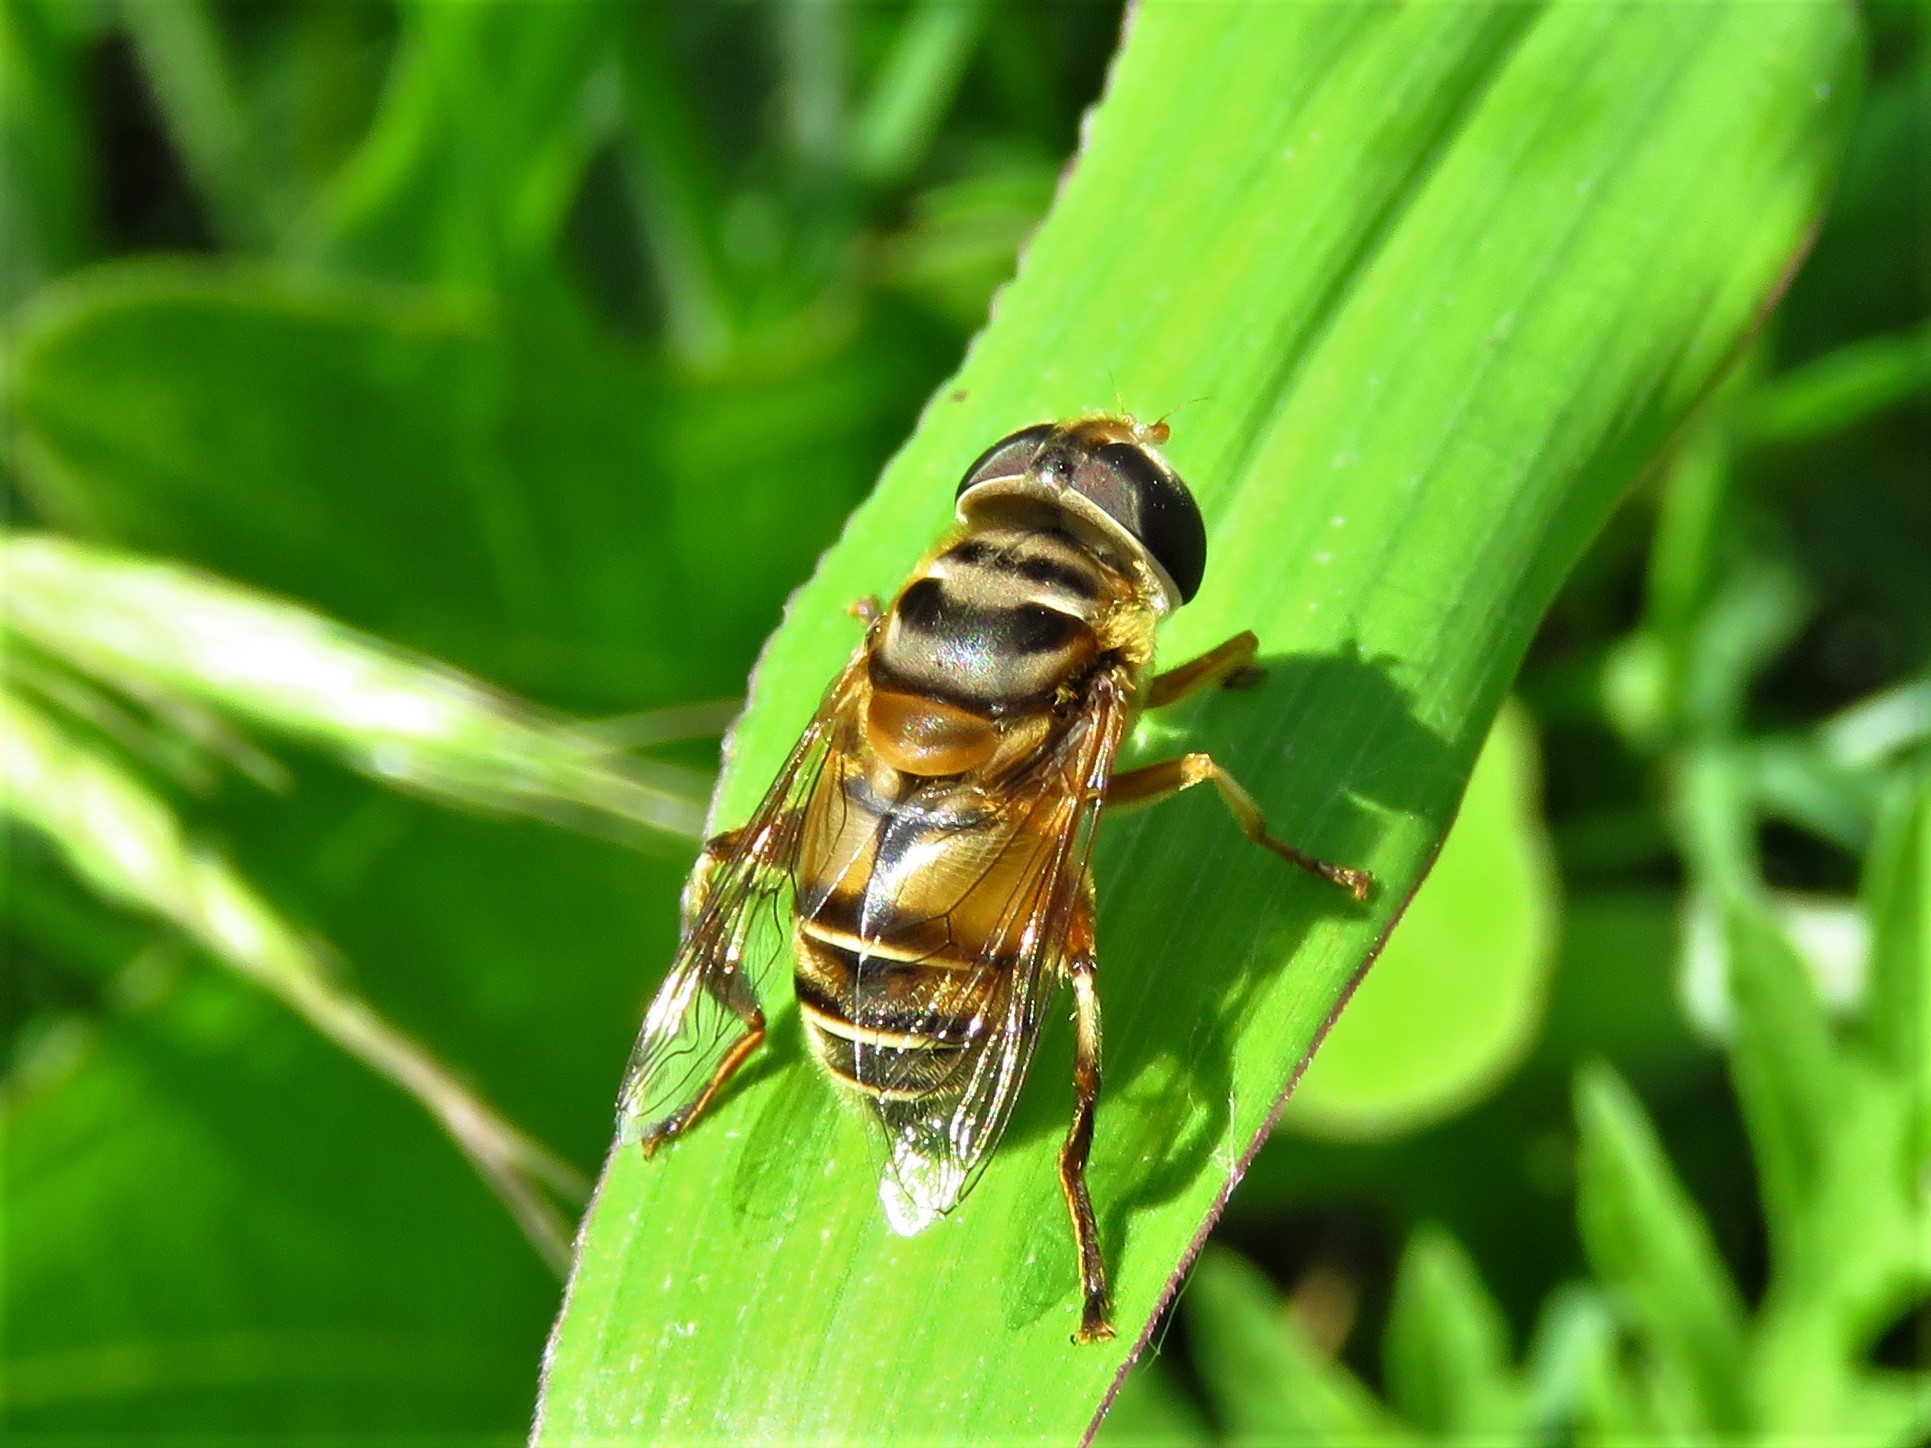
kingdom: Animalia
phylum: Arthropoda
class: Insecta
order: Diptera
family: Syrphidae
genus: Palpada
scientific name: Palpada vinetorum
